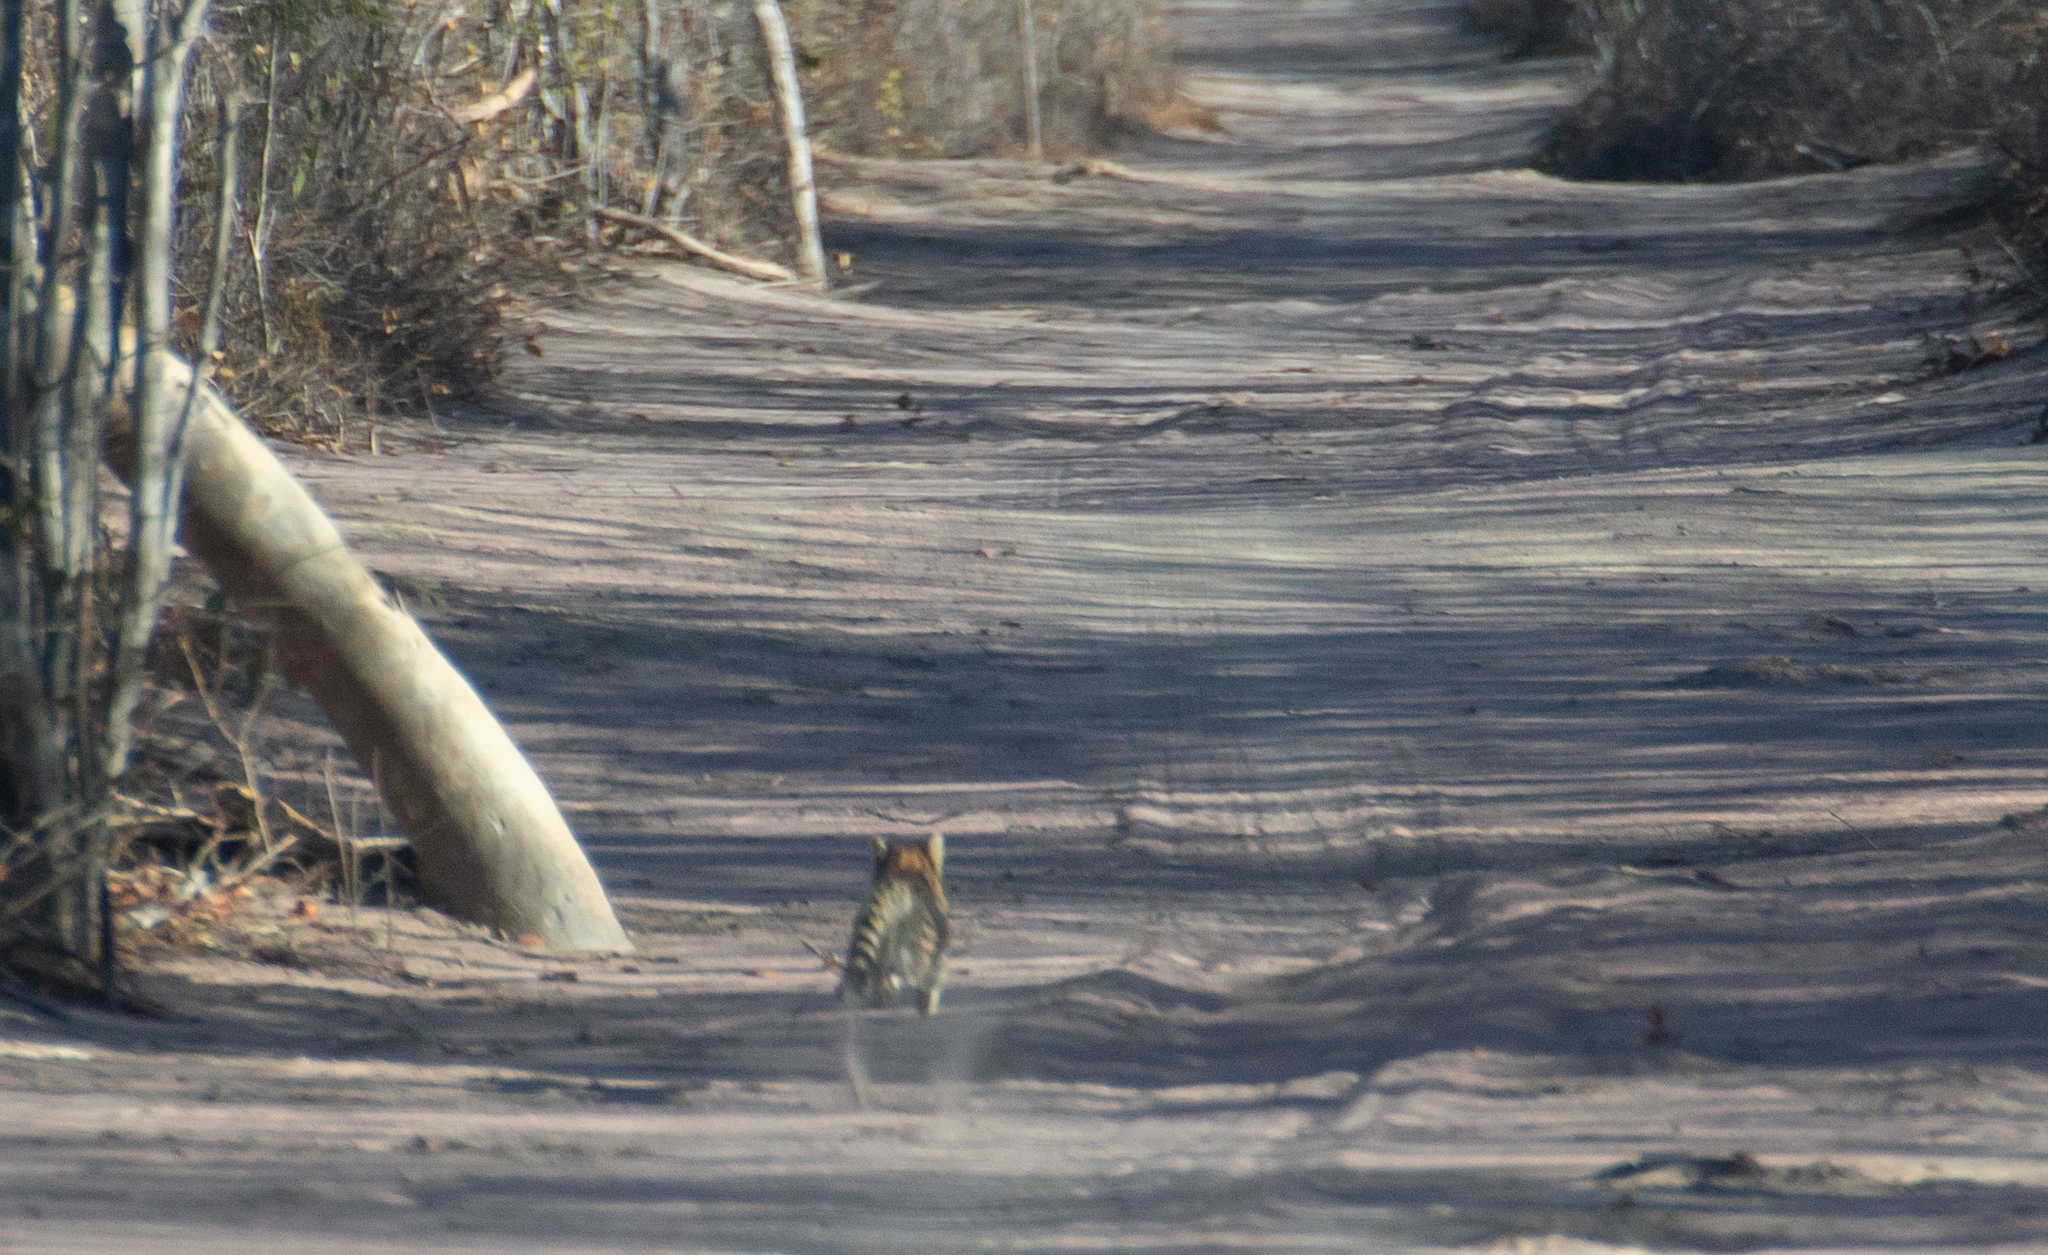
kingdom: Animalia
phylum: Chordata
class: Mammalia
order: Carnivora
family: Felidae
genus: Leopardus
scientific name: Leopardus
